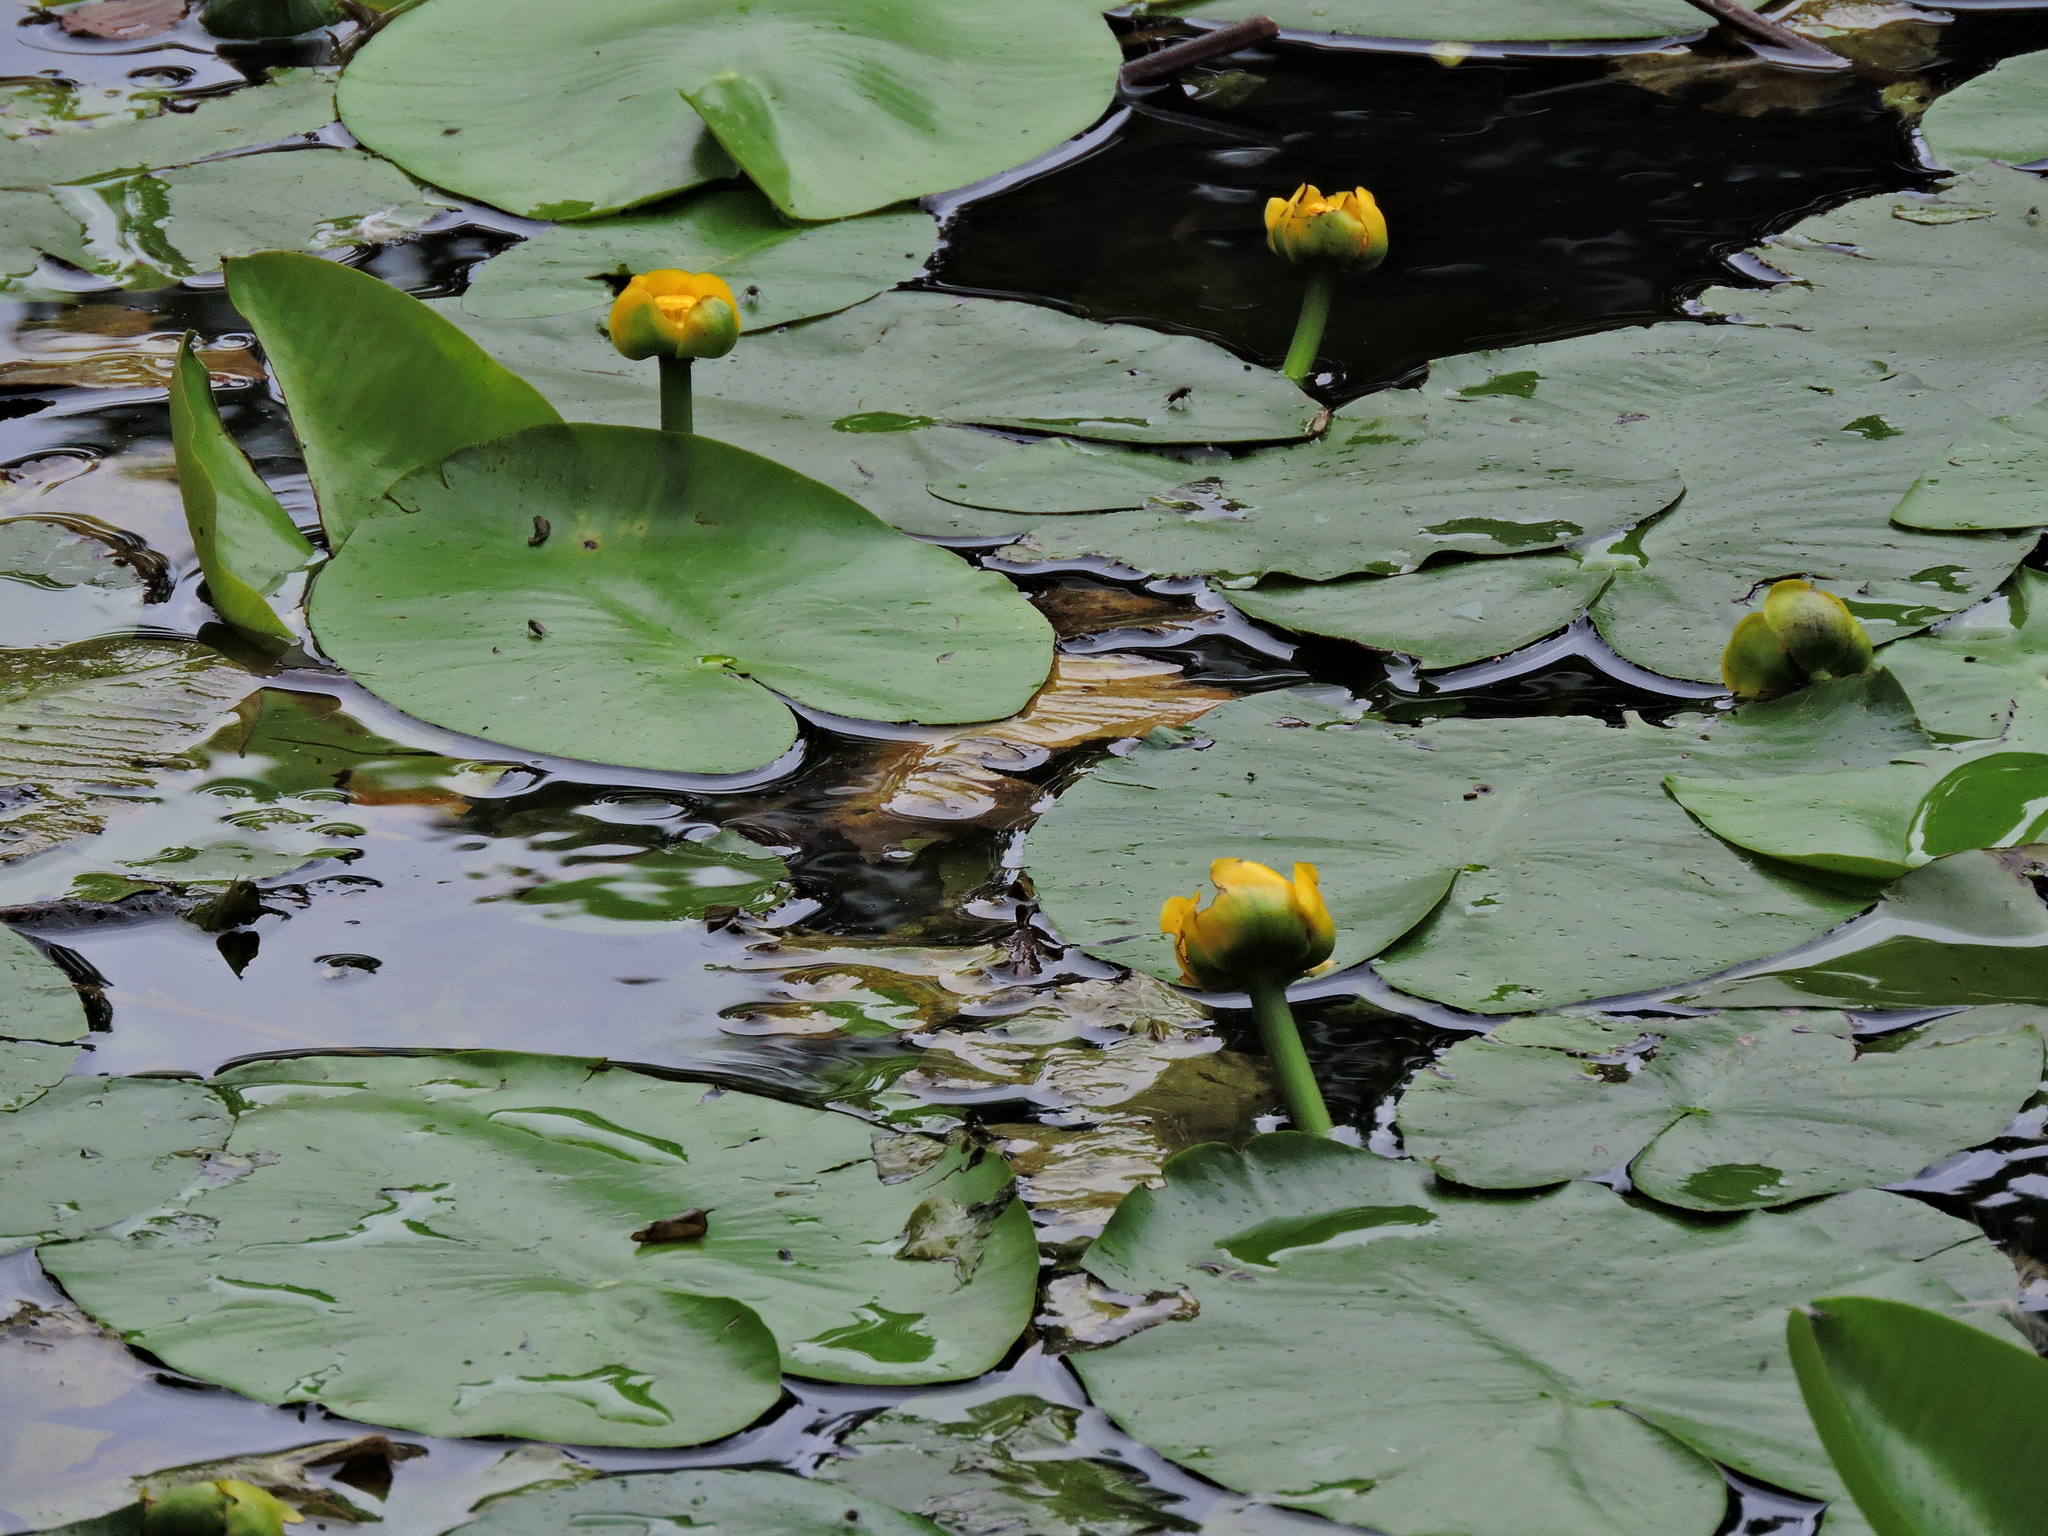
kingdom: Plantae
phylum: Tracheophyta
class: Magnoliopsida
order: Nymphaeales
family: Nymphaeaceae
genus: Nuphar
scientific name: Nuphar lutea
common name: Yellow water-lily
